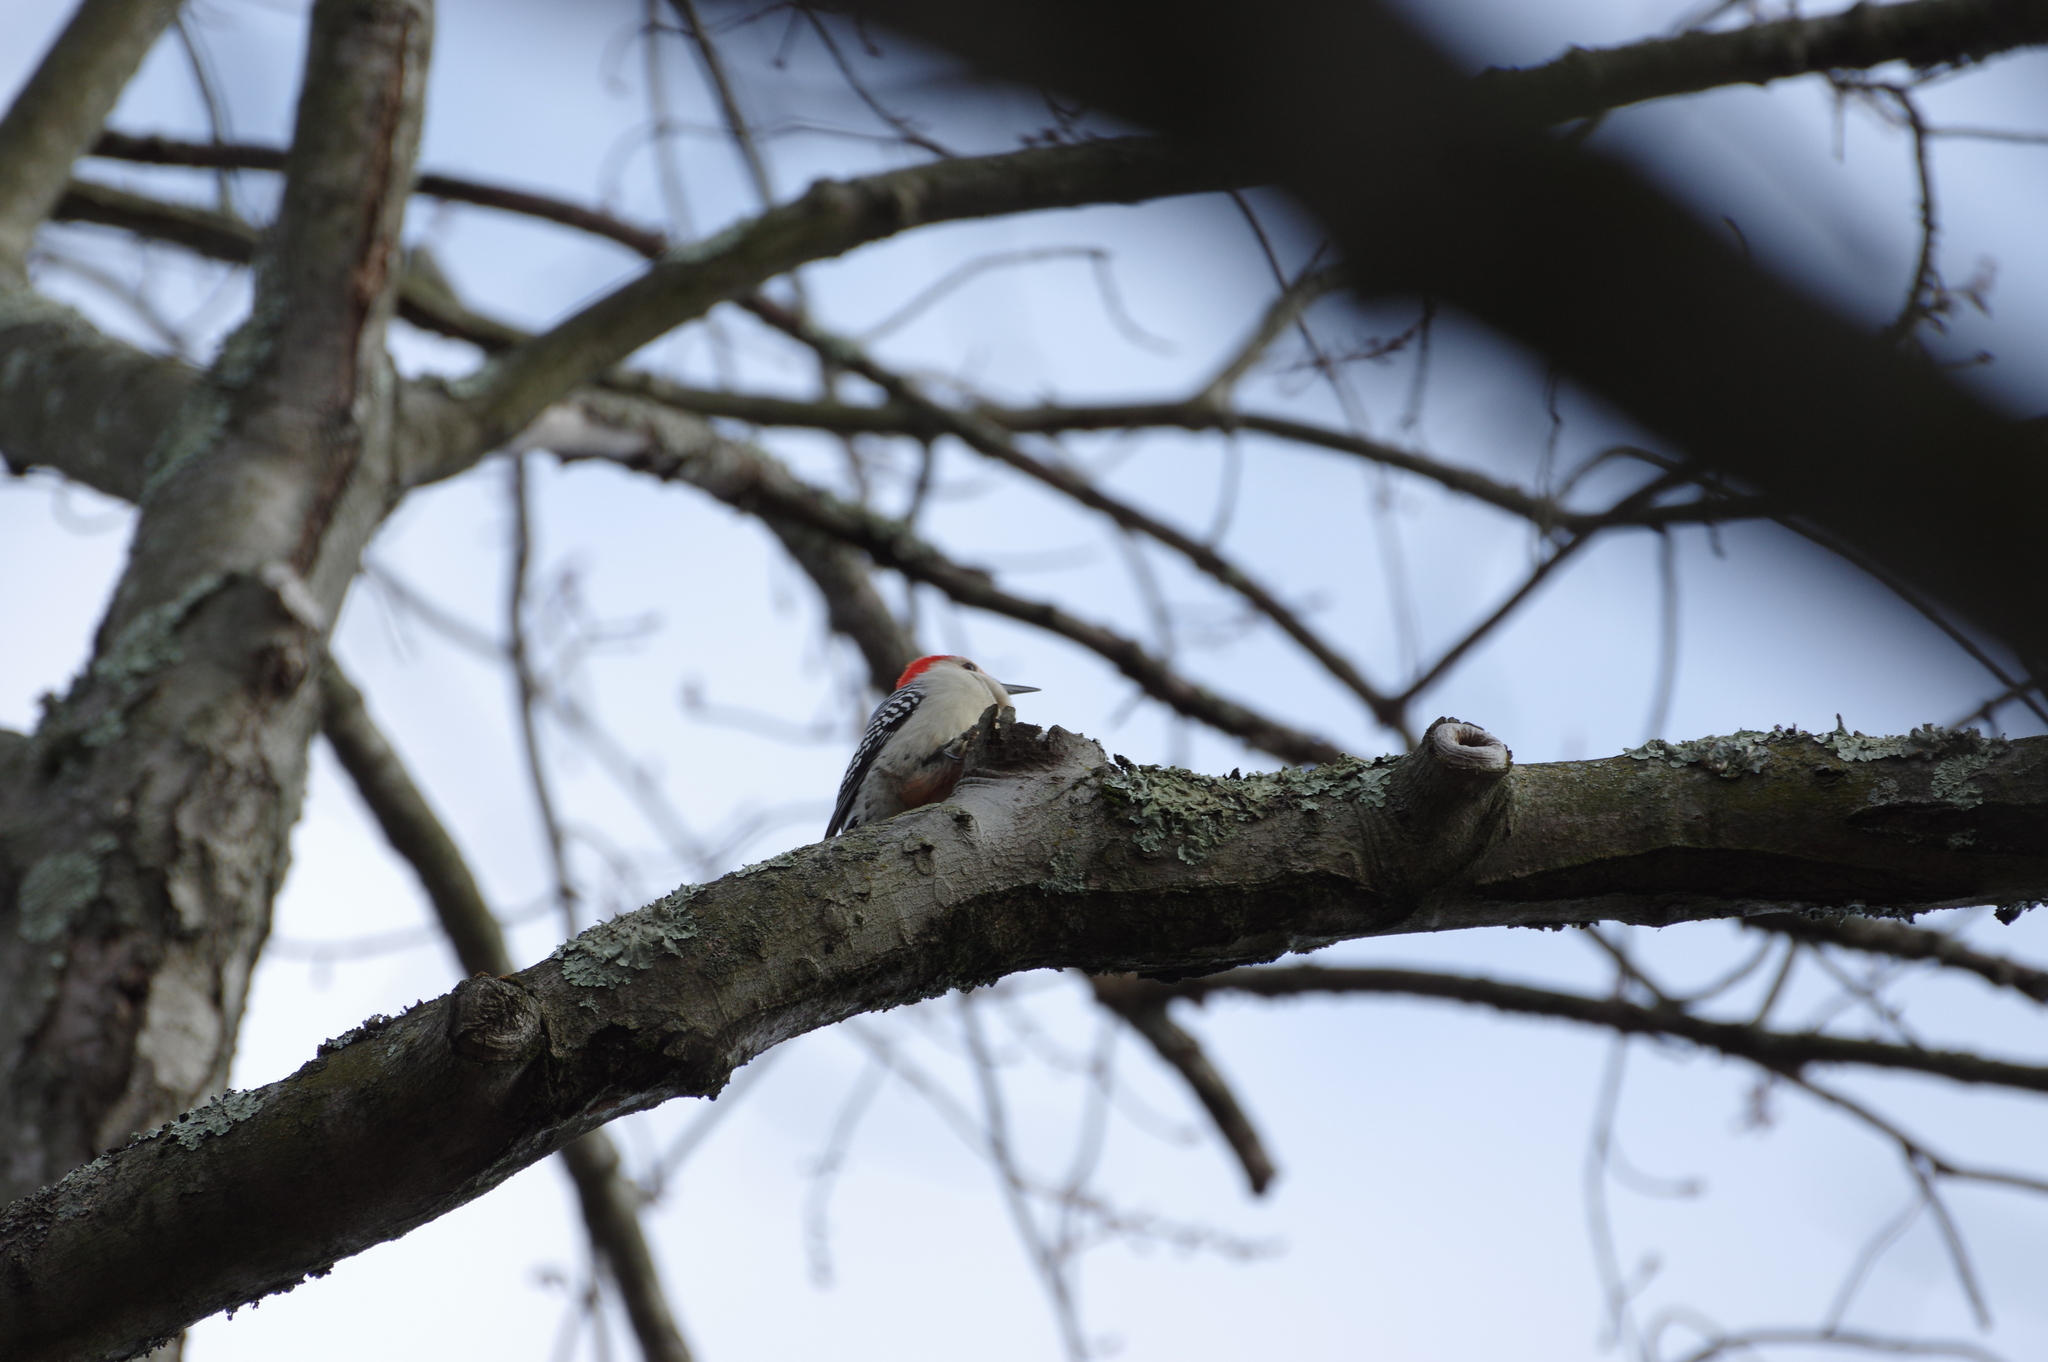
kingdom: Animalia
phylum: Chordata
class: Aves
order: Piciformes
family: Picidae
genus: Melanerpes
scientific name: Melanerpes carolinus
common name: Red-bellied woodpecker
